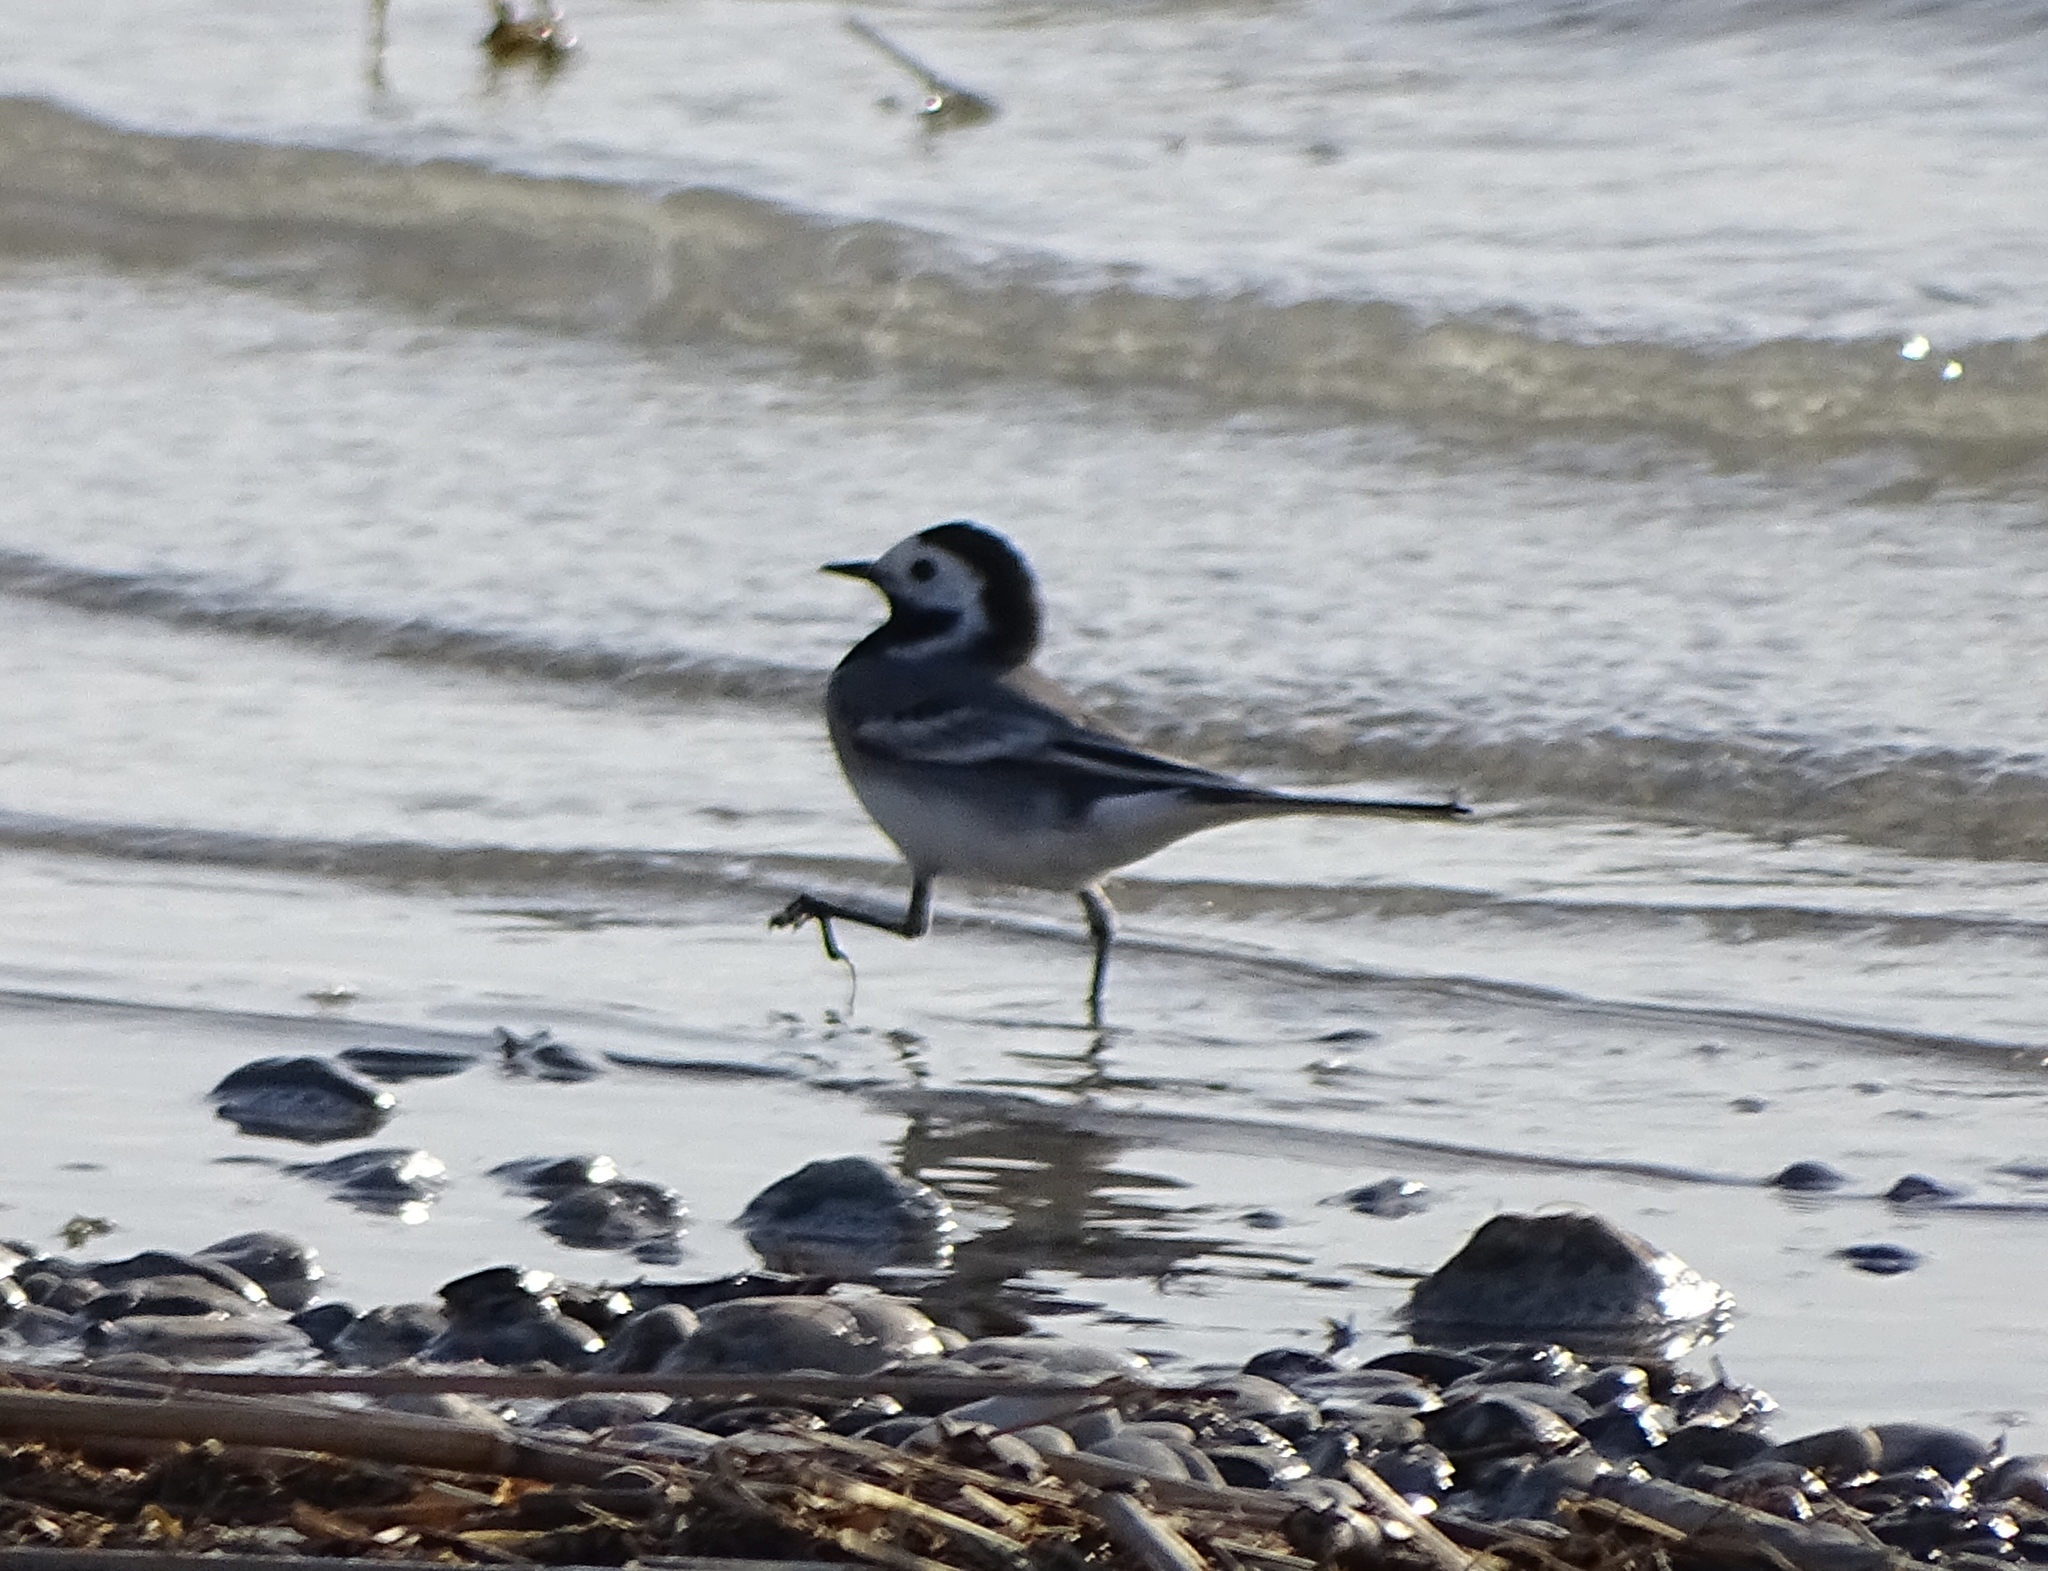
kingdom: Animalia
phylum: Chordata
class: Aves
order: Passeriformes
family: Motacillidae
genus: Motacilla
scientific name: Motacilla alba
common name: White wagtail
